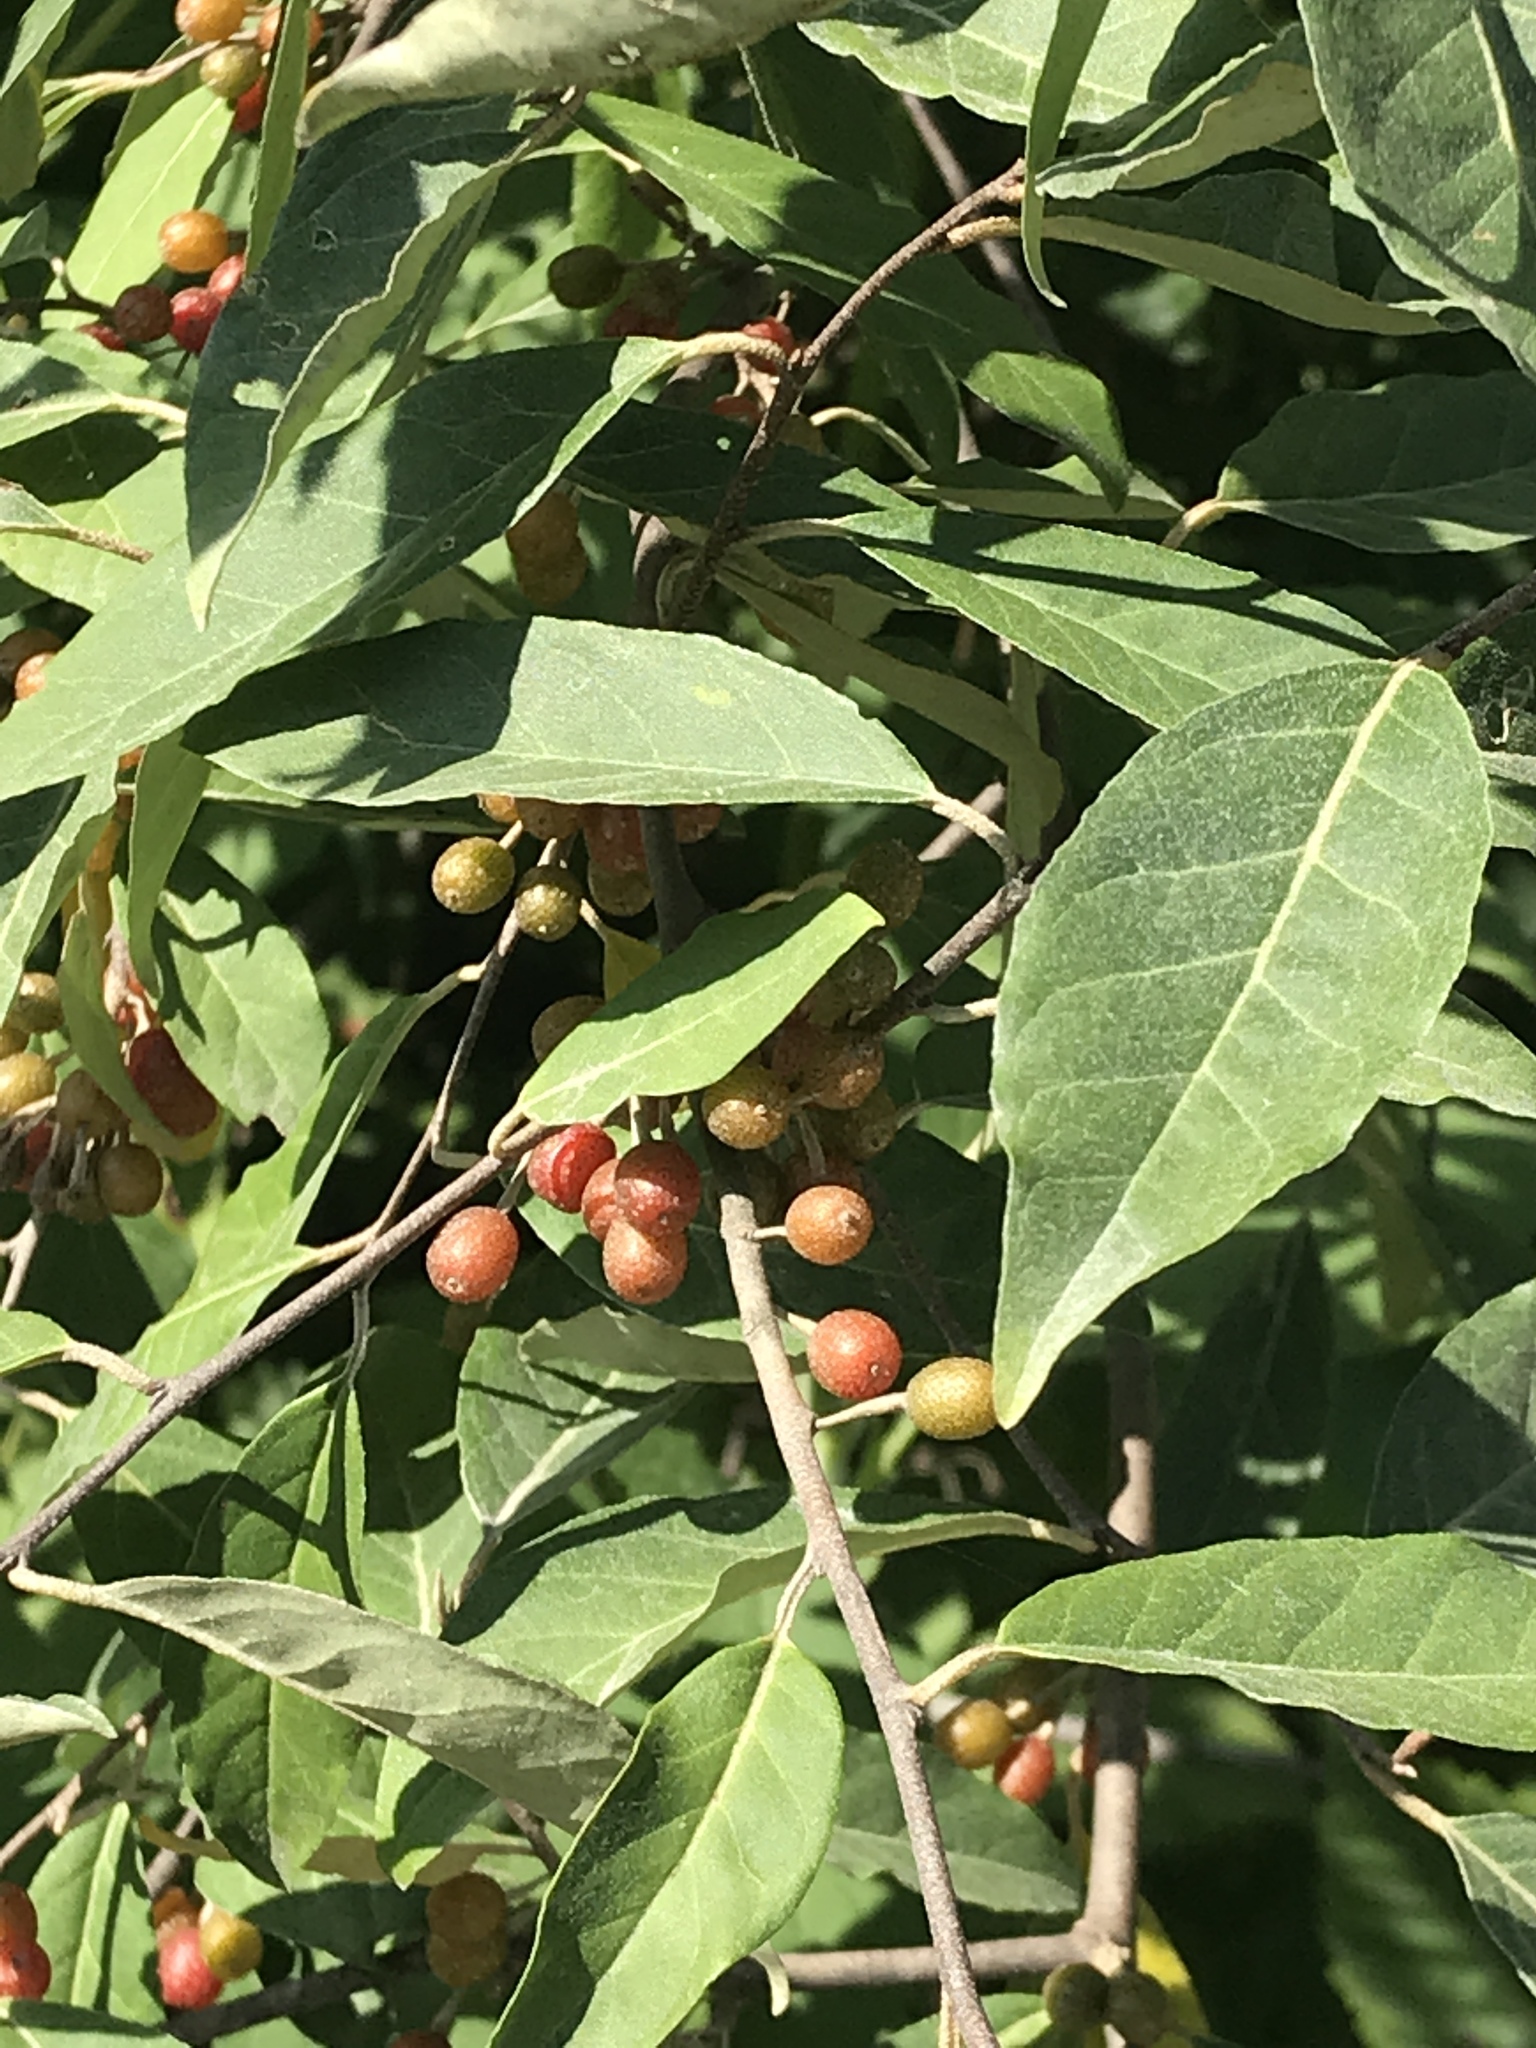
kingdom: Plantae
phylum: Tracheophyta
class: Magnoliopsida
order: Rosales
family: Elaeagnaceae
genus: Elaeagnus
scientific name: Elaeagnus umbellata
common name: Autumn olive
